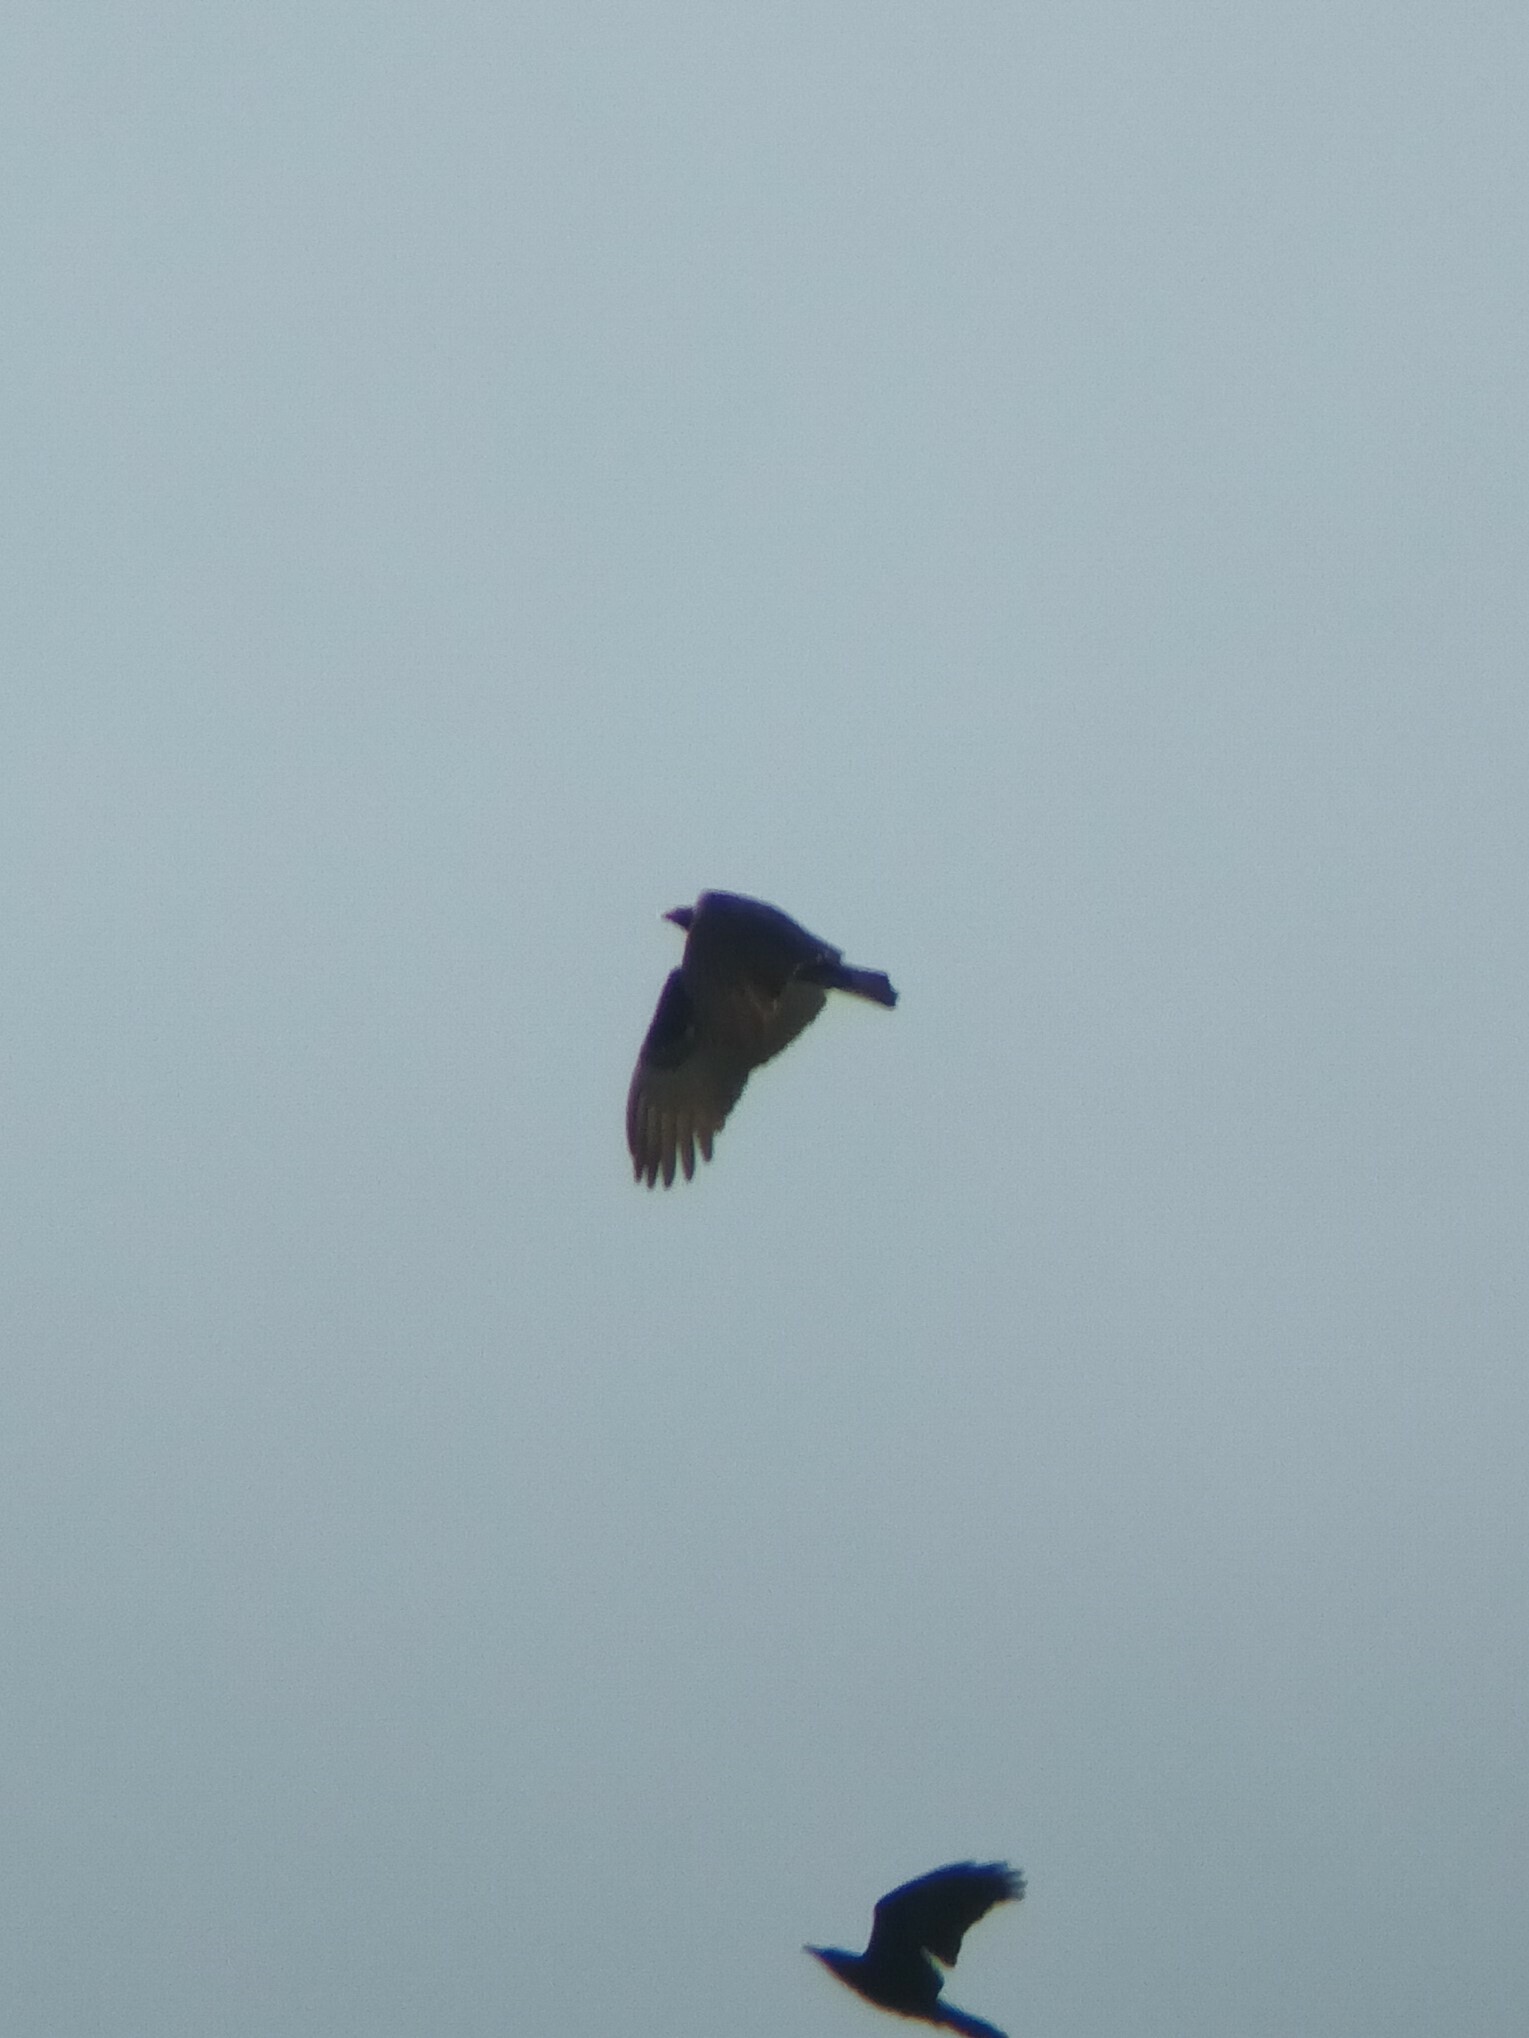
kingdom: Animalia
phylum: Chordata
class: Aves
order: Accipitriformes
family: Cathartidae
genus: Cathartes
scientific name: Cathartes aura
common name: Turkey vulture
